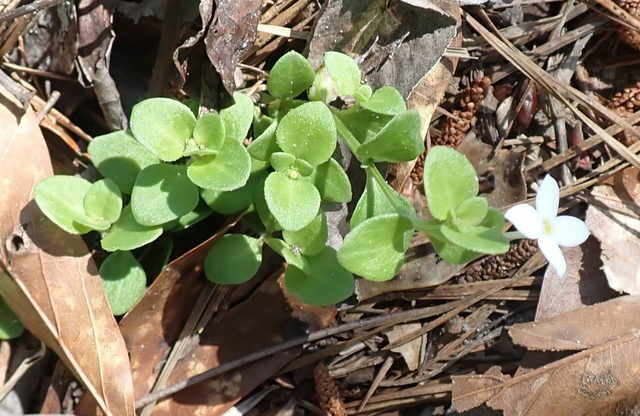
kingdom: Plantae
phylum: Tracheophyta
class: Magnoliopsida
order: Gentianales
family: Rubiaceae
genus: Houstonia
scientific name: Houstonia procumbens
